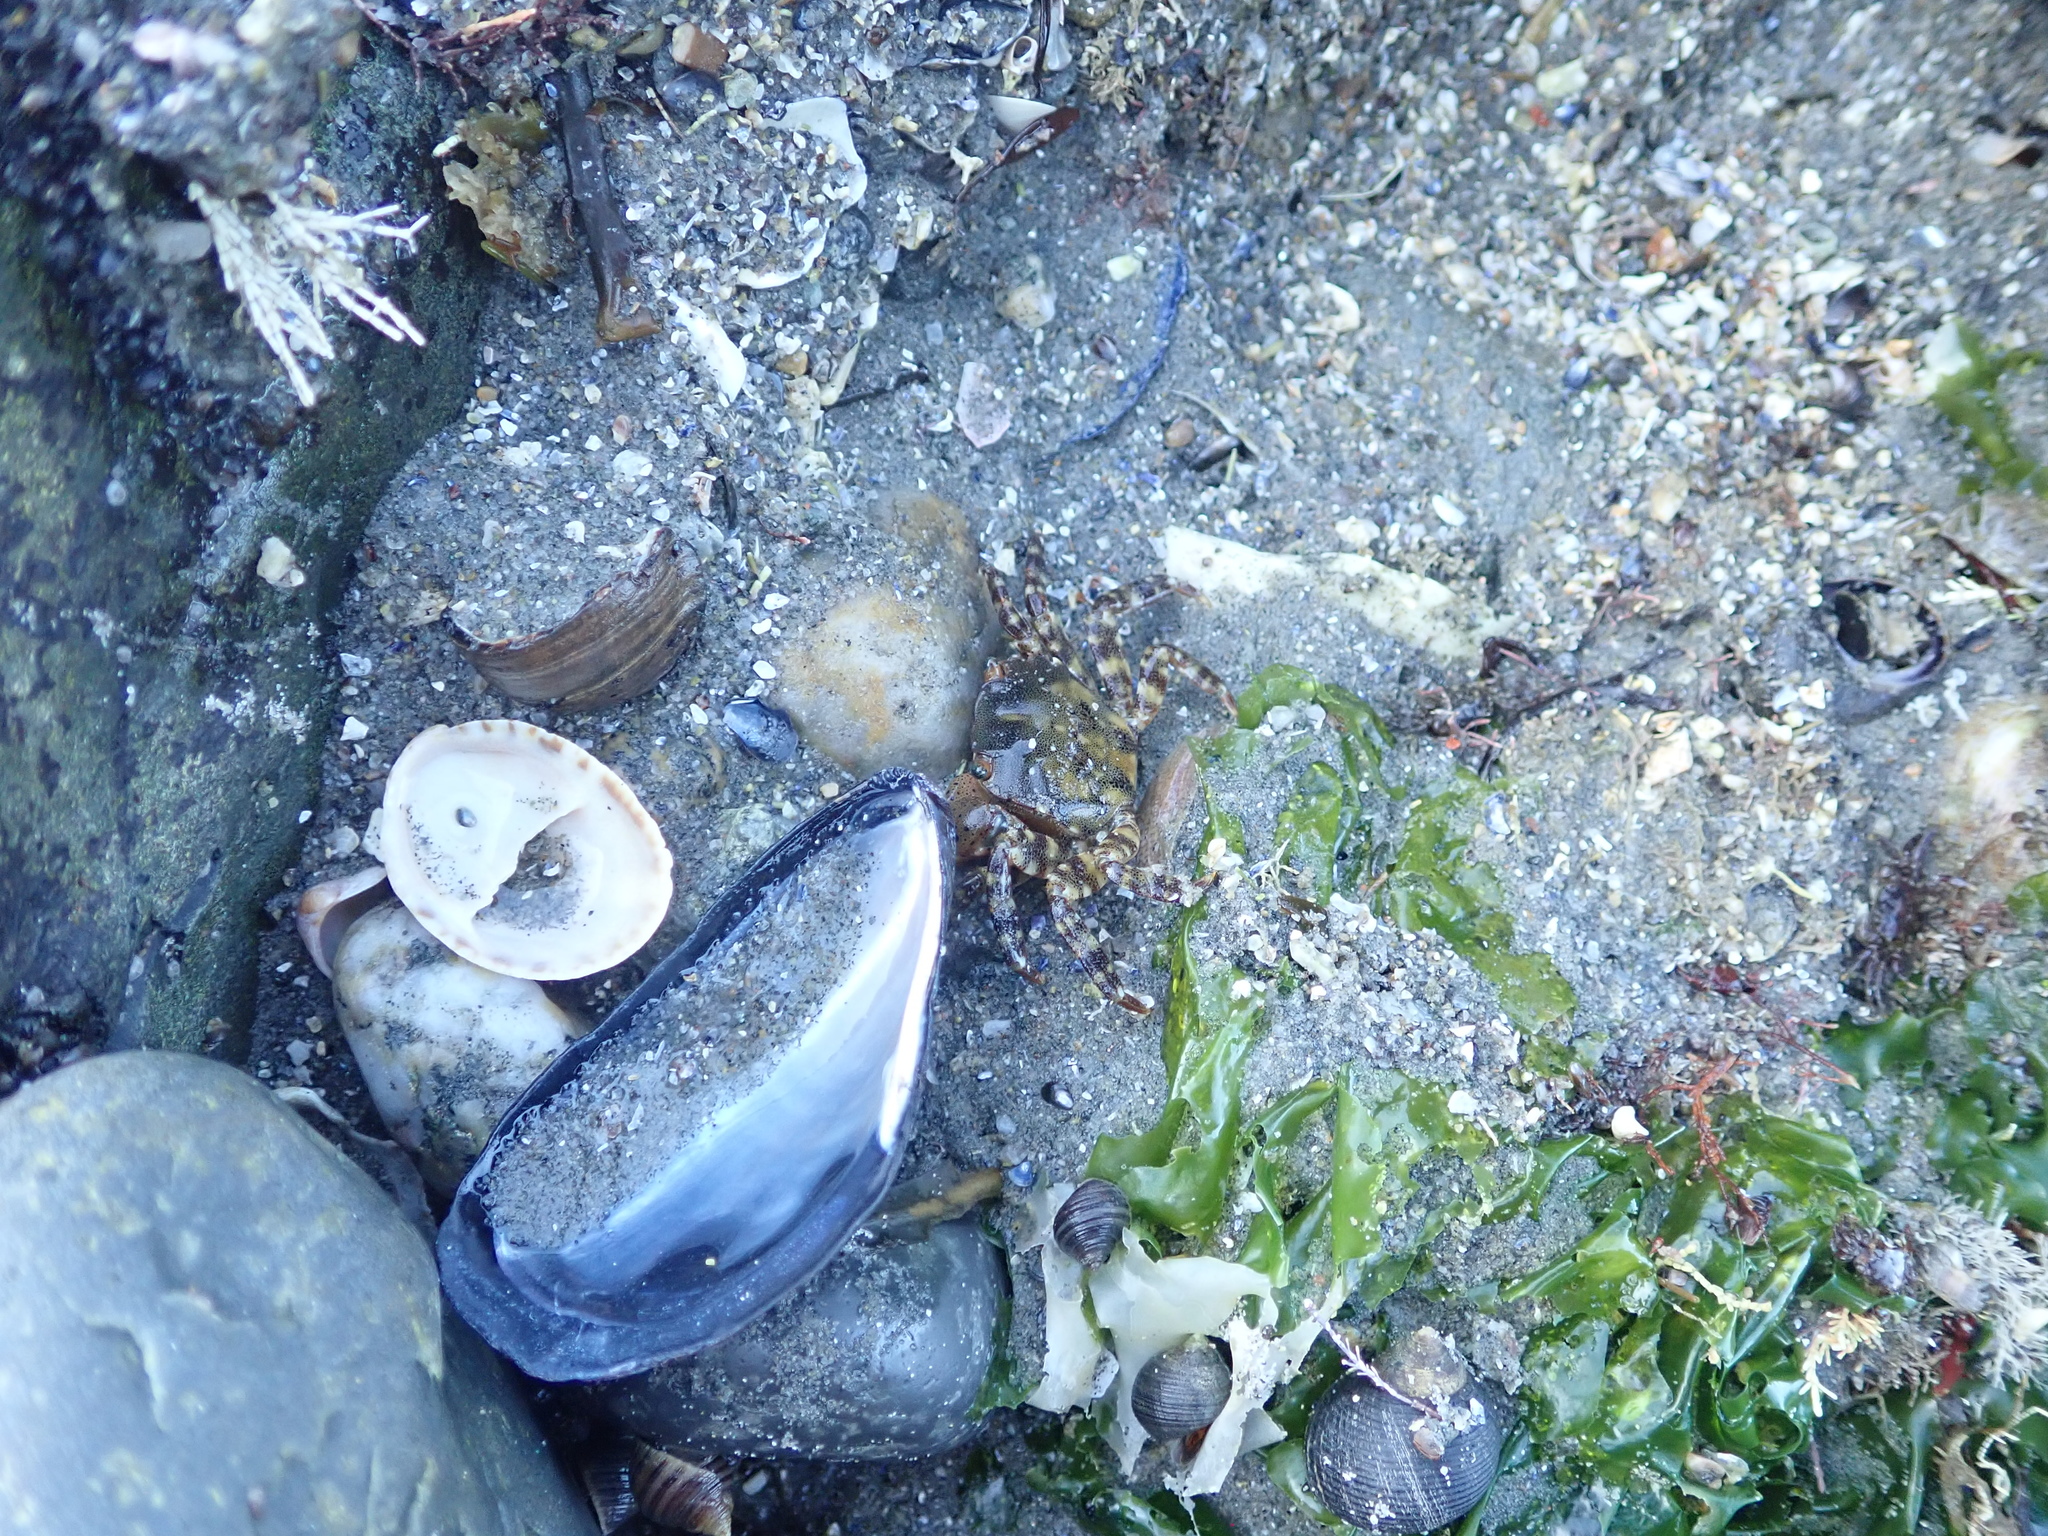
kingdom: Animalia
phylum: Mollusca
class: Gastropoda
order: Littorinimorpha
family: Calyptraeidae
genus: Crepidula
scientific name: Crepidula fornicata
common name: Slipper limpet
